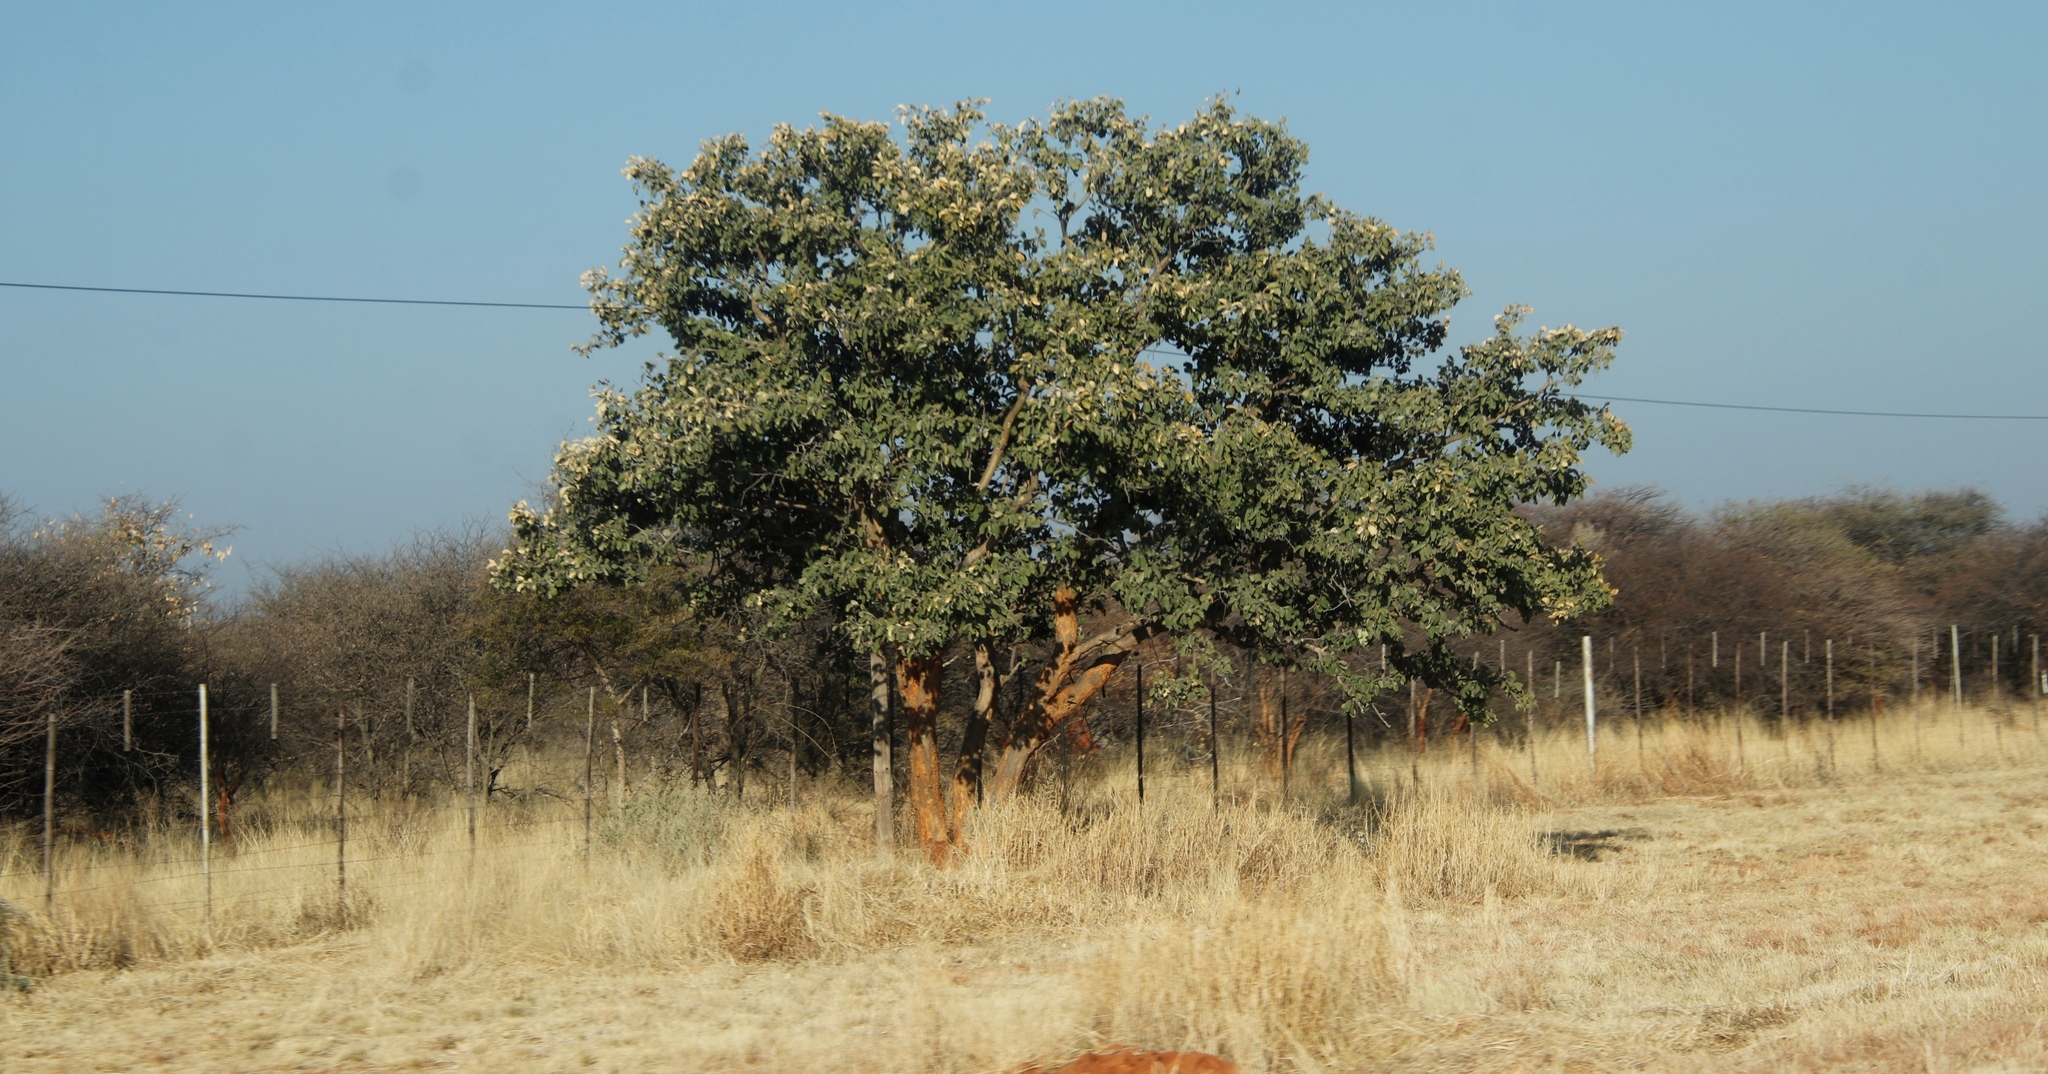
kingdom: Plantae
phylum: Tracheophyta
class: Magnoliopsida
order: Fabales
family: Fabaceae
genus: Philenoptera
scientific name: Philenoptera nelsii
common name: Kalahari apple-leaf
